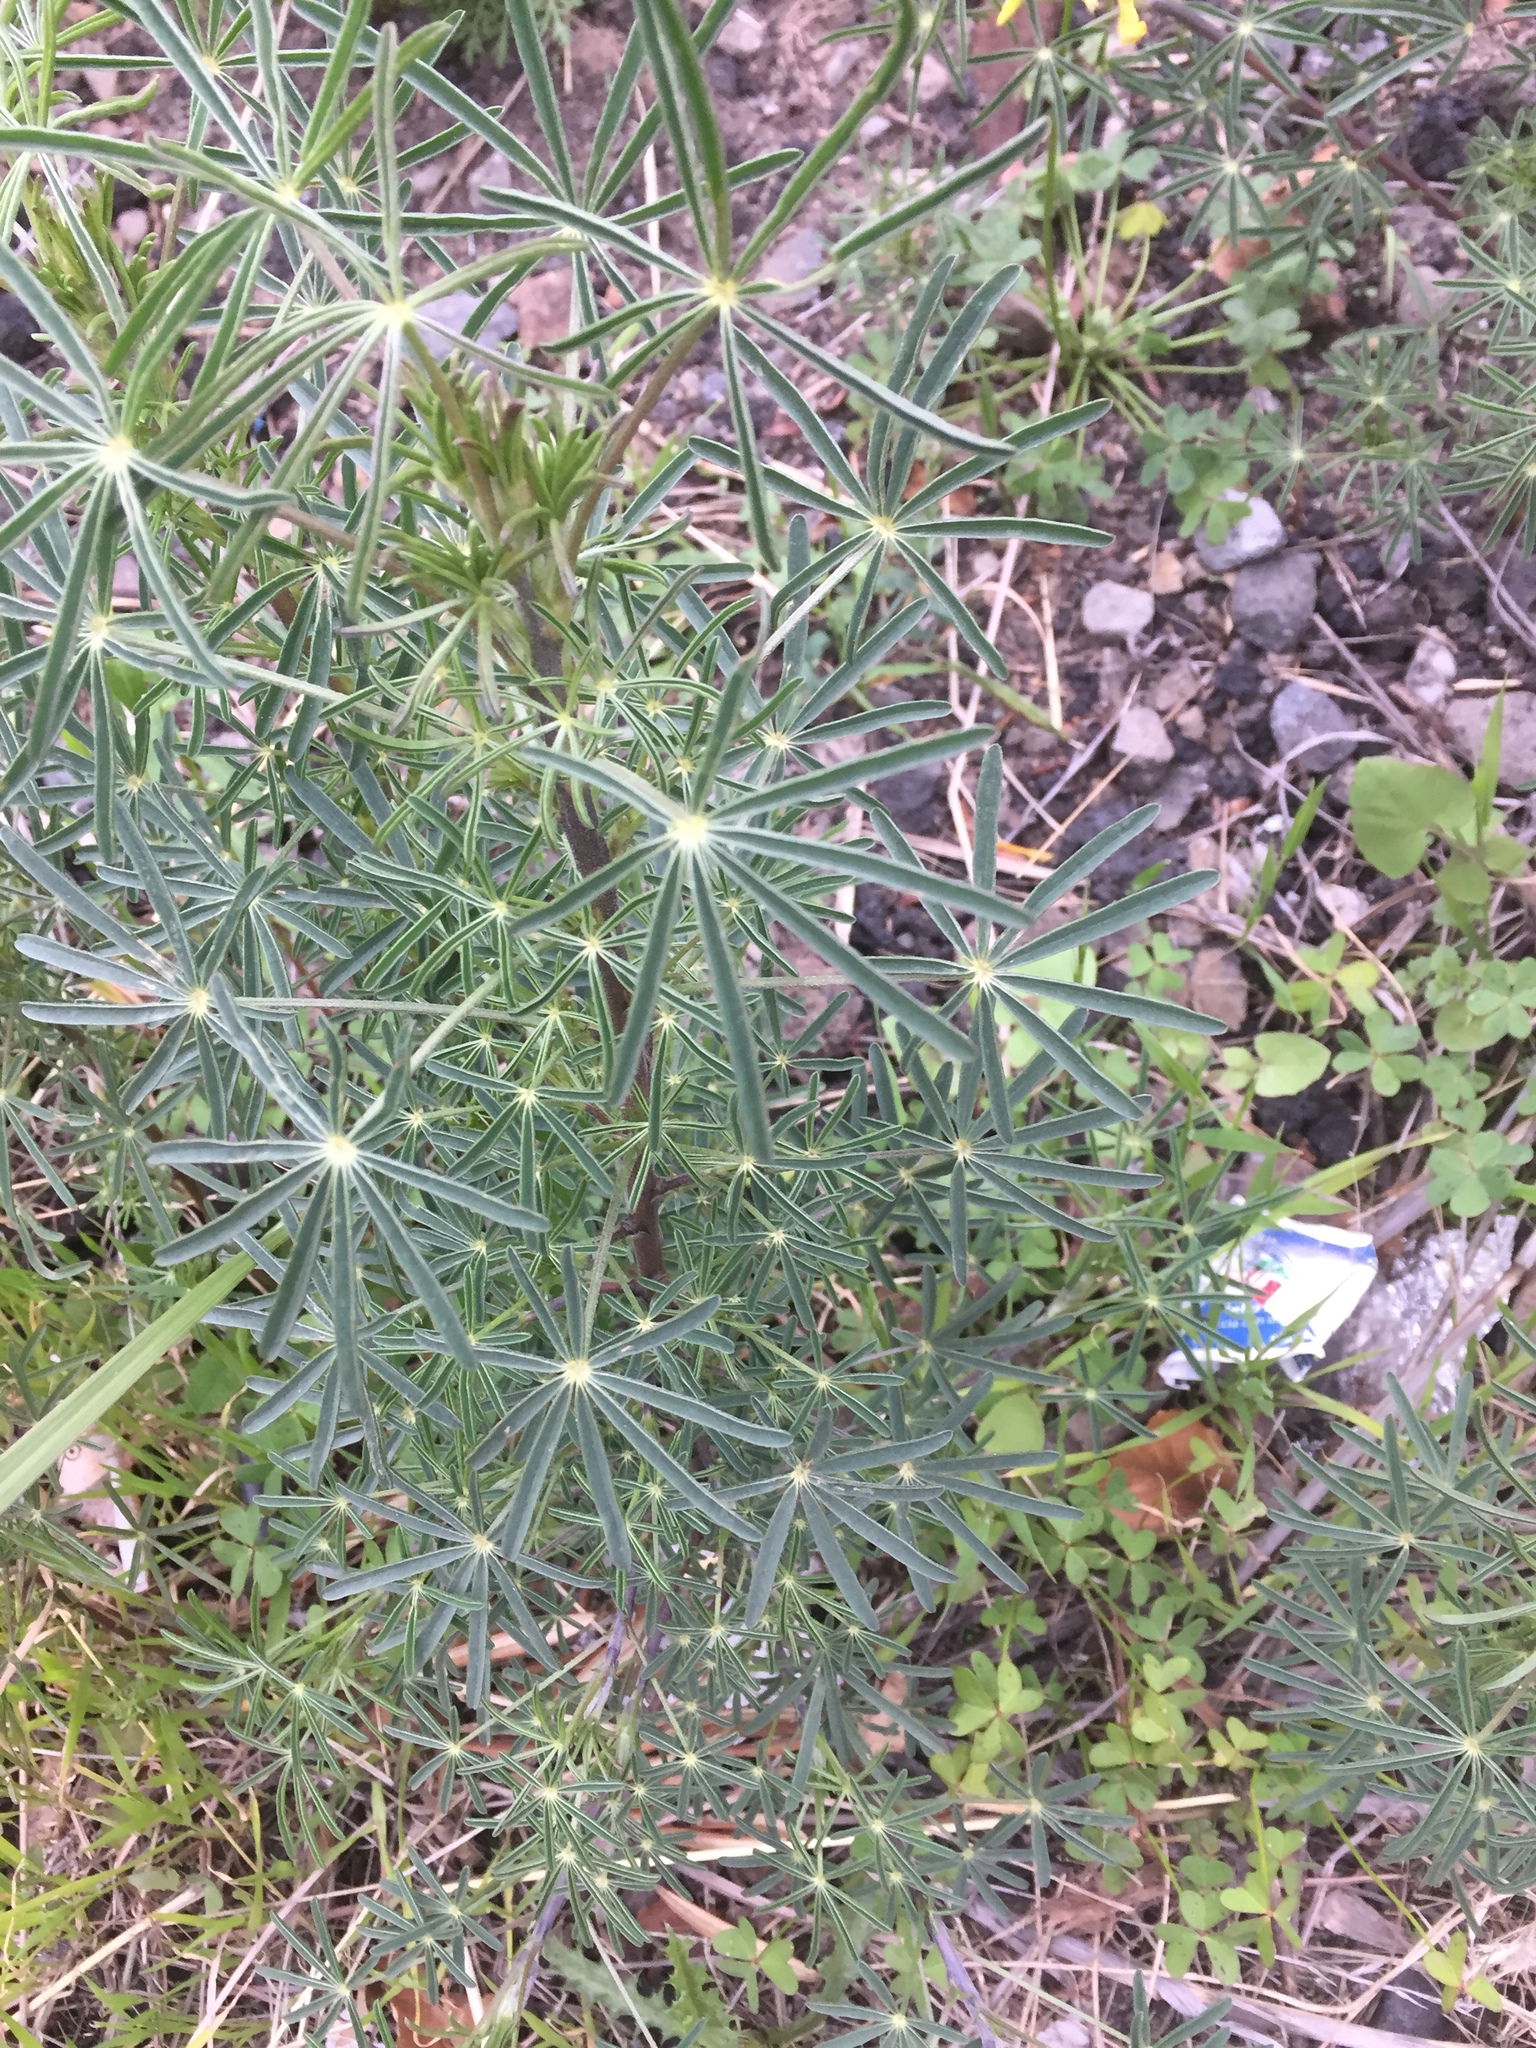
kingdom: Plantae
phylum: Tracheophyta
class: Magnoliopsida
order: Fabales
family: Fabaceae
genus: Lupinus
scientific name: Lupinus angustifolius
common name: Narrow-leaved lupin
